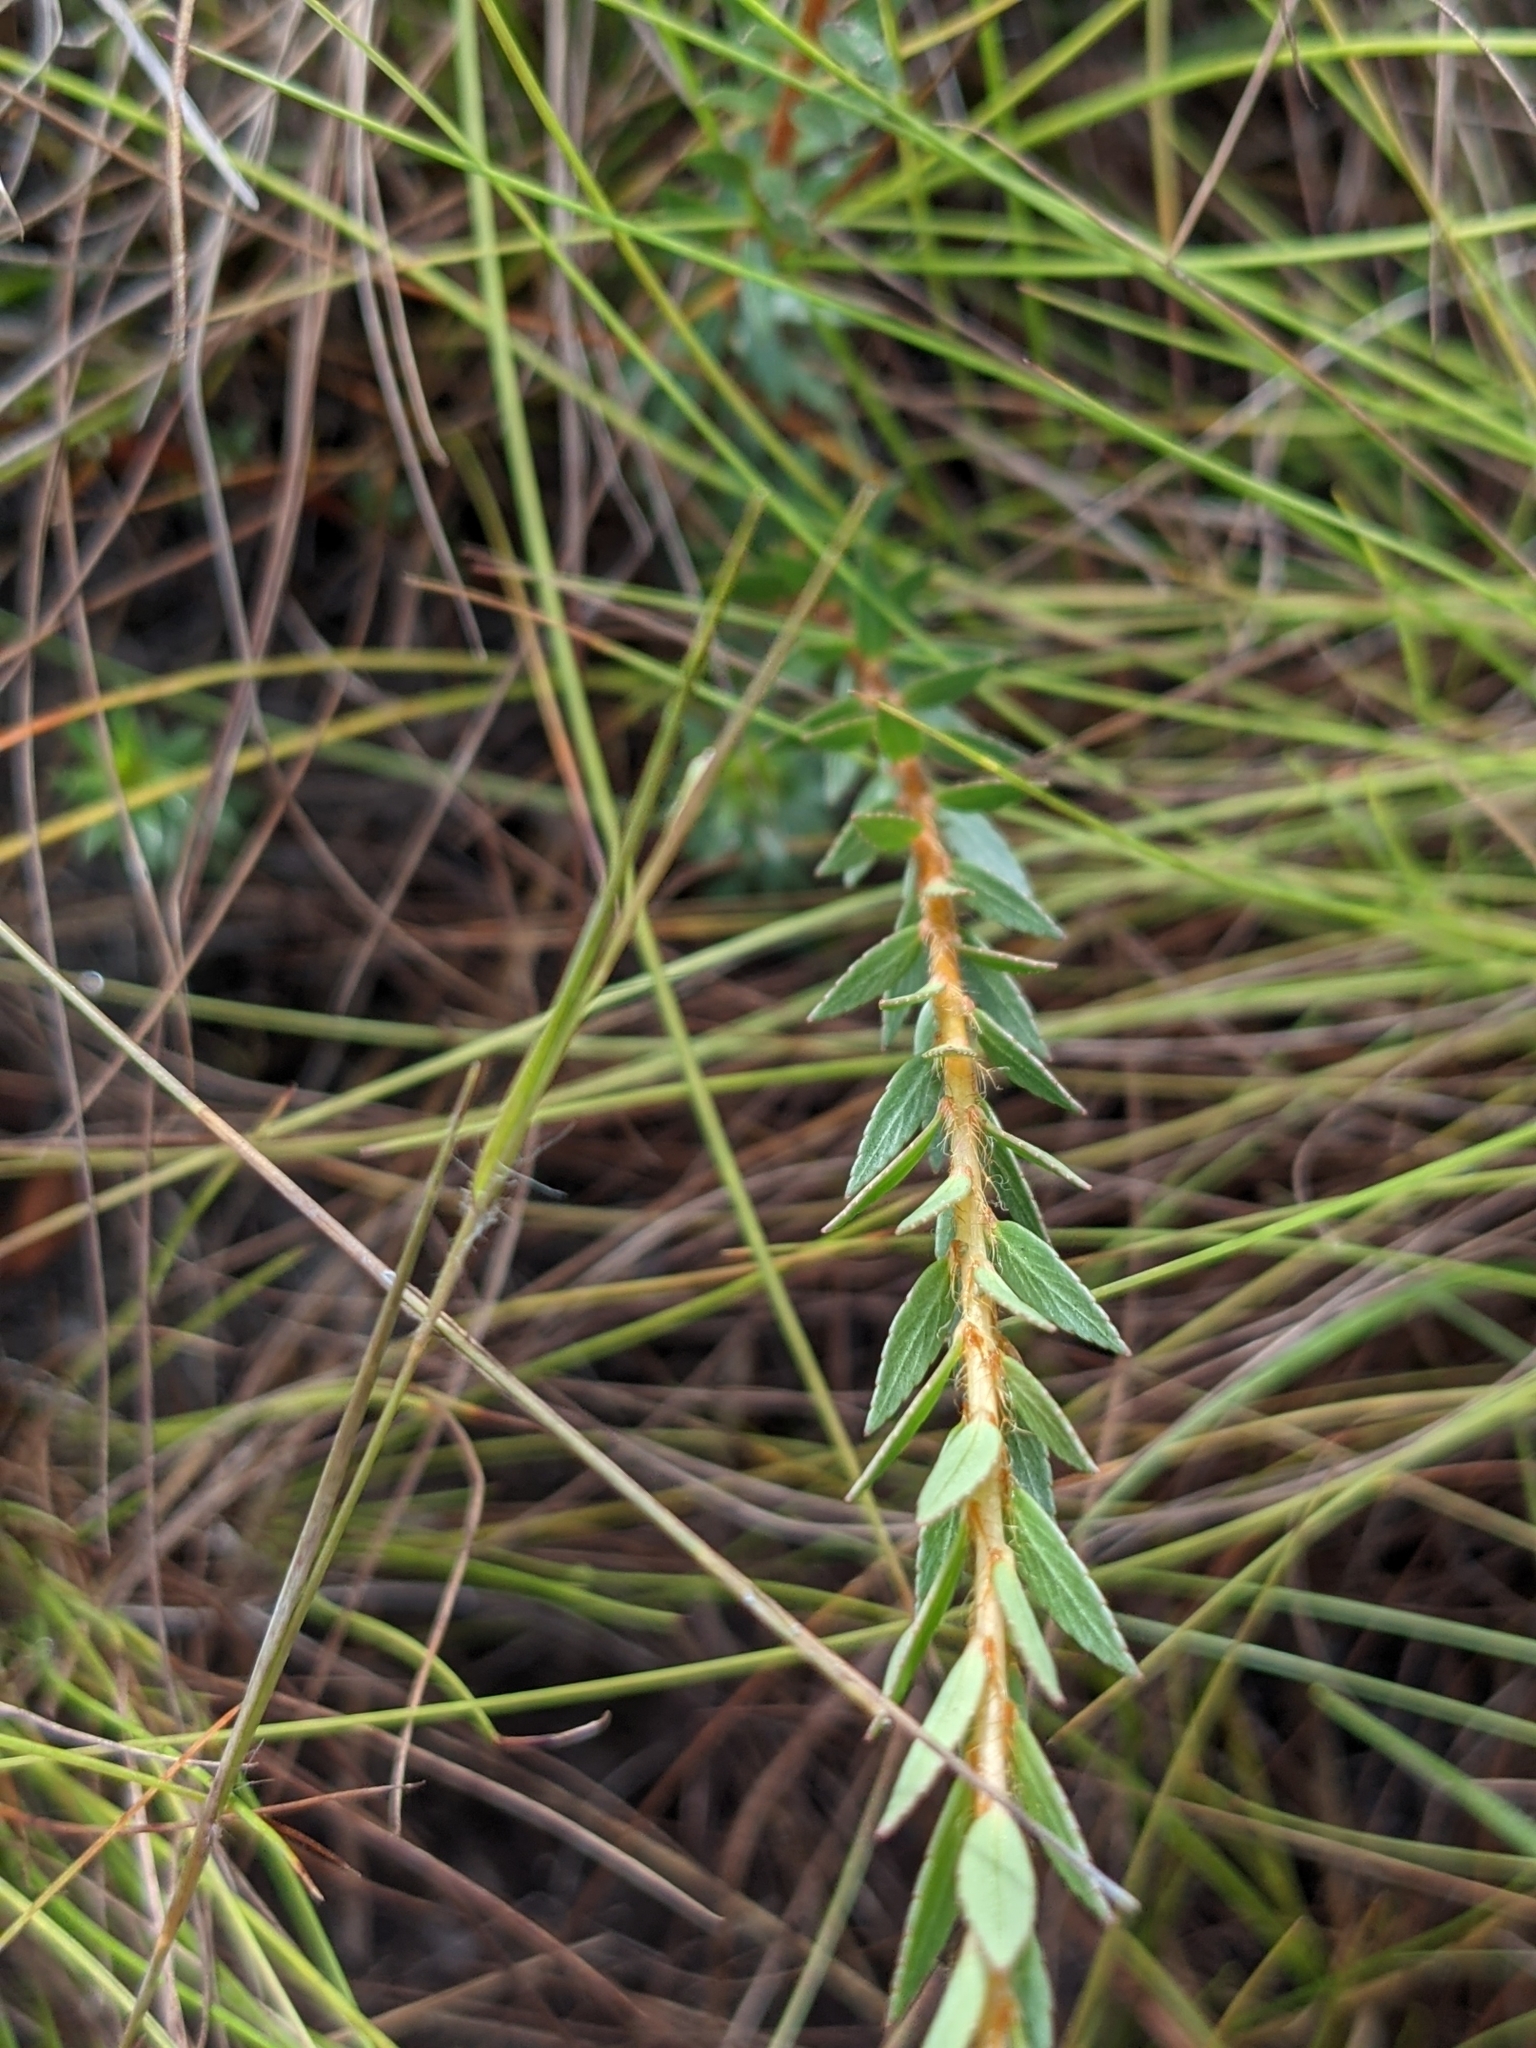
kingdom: Plantae
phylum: Tracheophyta
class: Magnoliopsida
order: Malpighiales
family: Ochnaceae
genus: Sauvagesia
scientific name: Sauvagesia sprengelii
